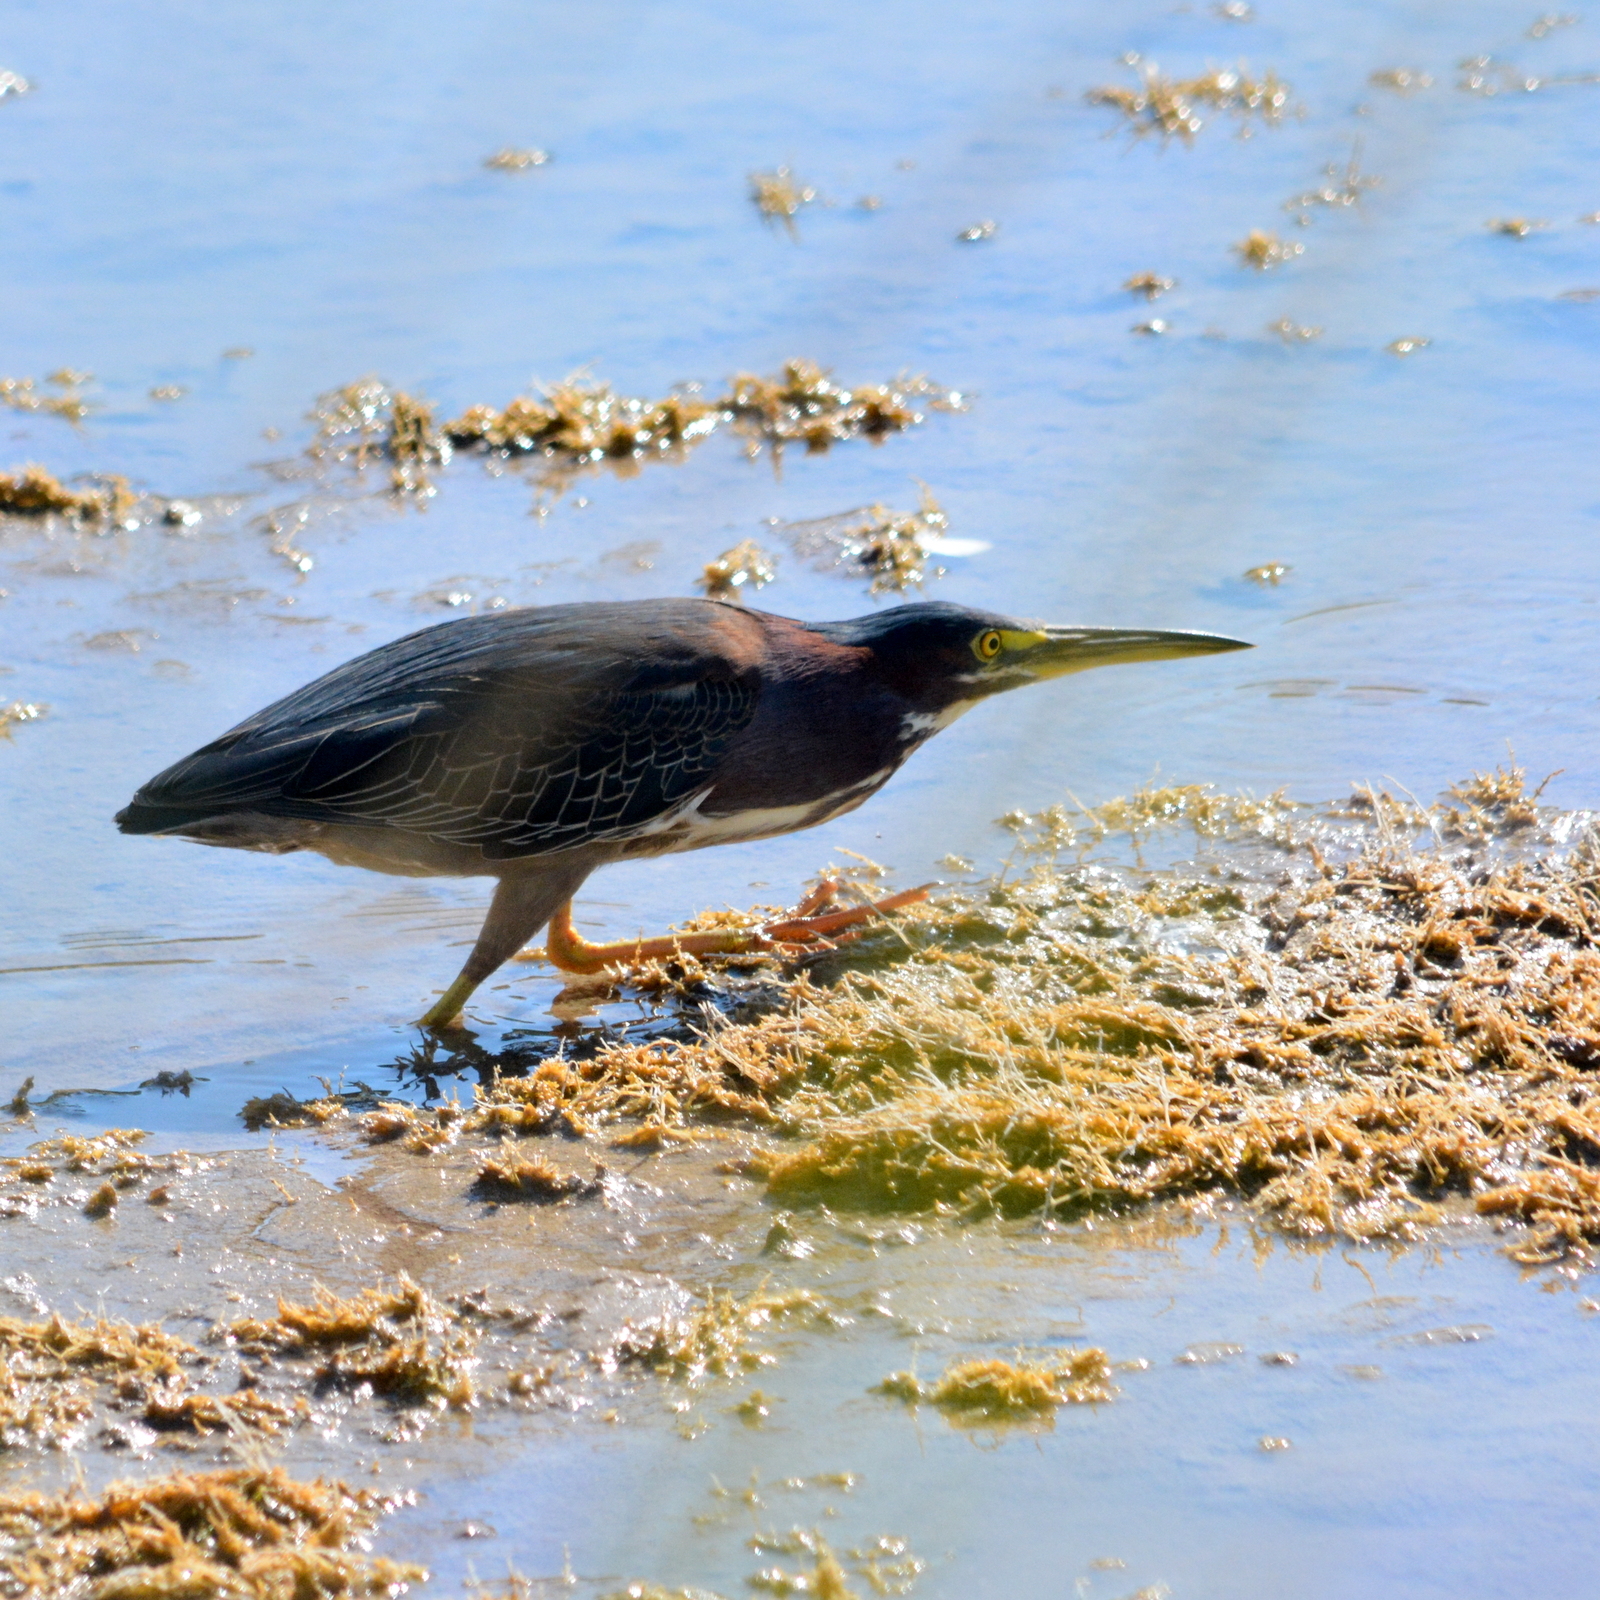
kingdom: Animalia
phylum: Chordata
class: Aves
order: Pelecaniformes
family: Ardeidae
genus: Butorides
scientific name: Butorides virescens
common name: Green heron
